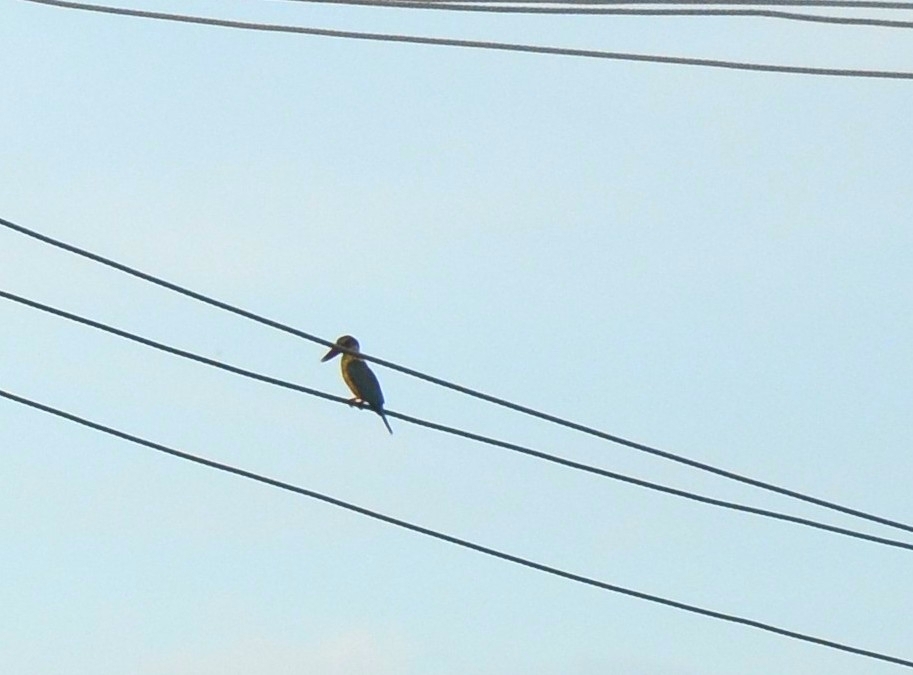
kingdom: Animalia
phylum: Chordata
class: Aves
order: Coraciiformes
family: Alcedinidae
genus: Pelargopsis
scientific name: Pelargopsis capensis
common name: Stork-billed kingfisher
